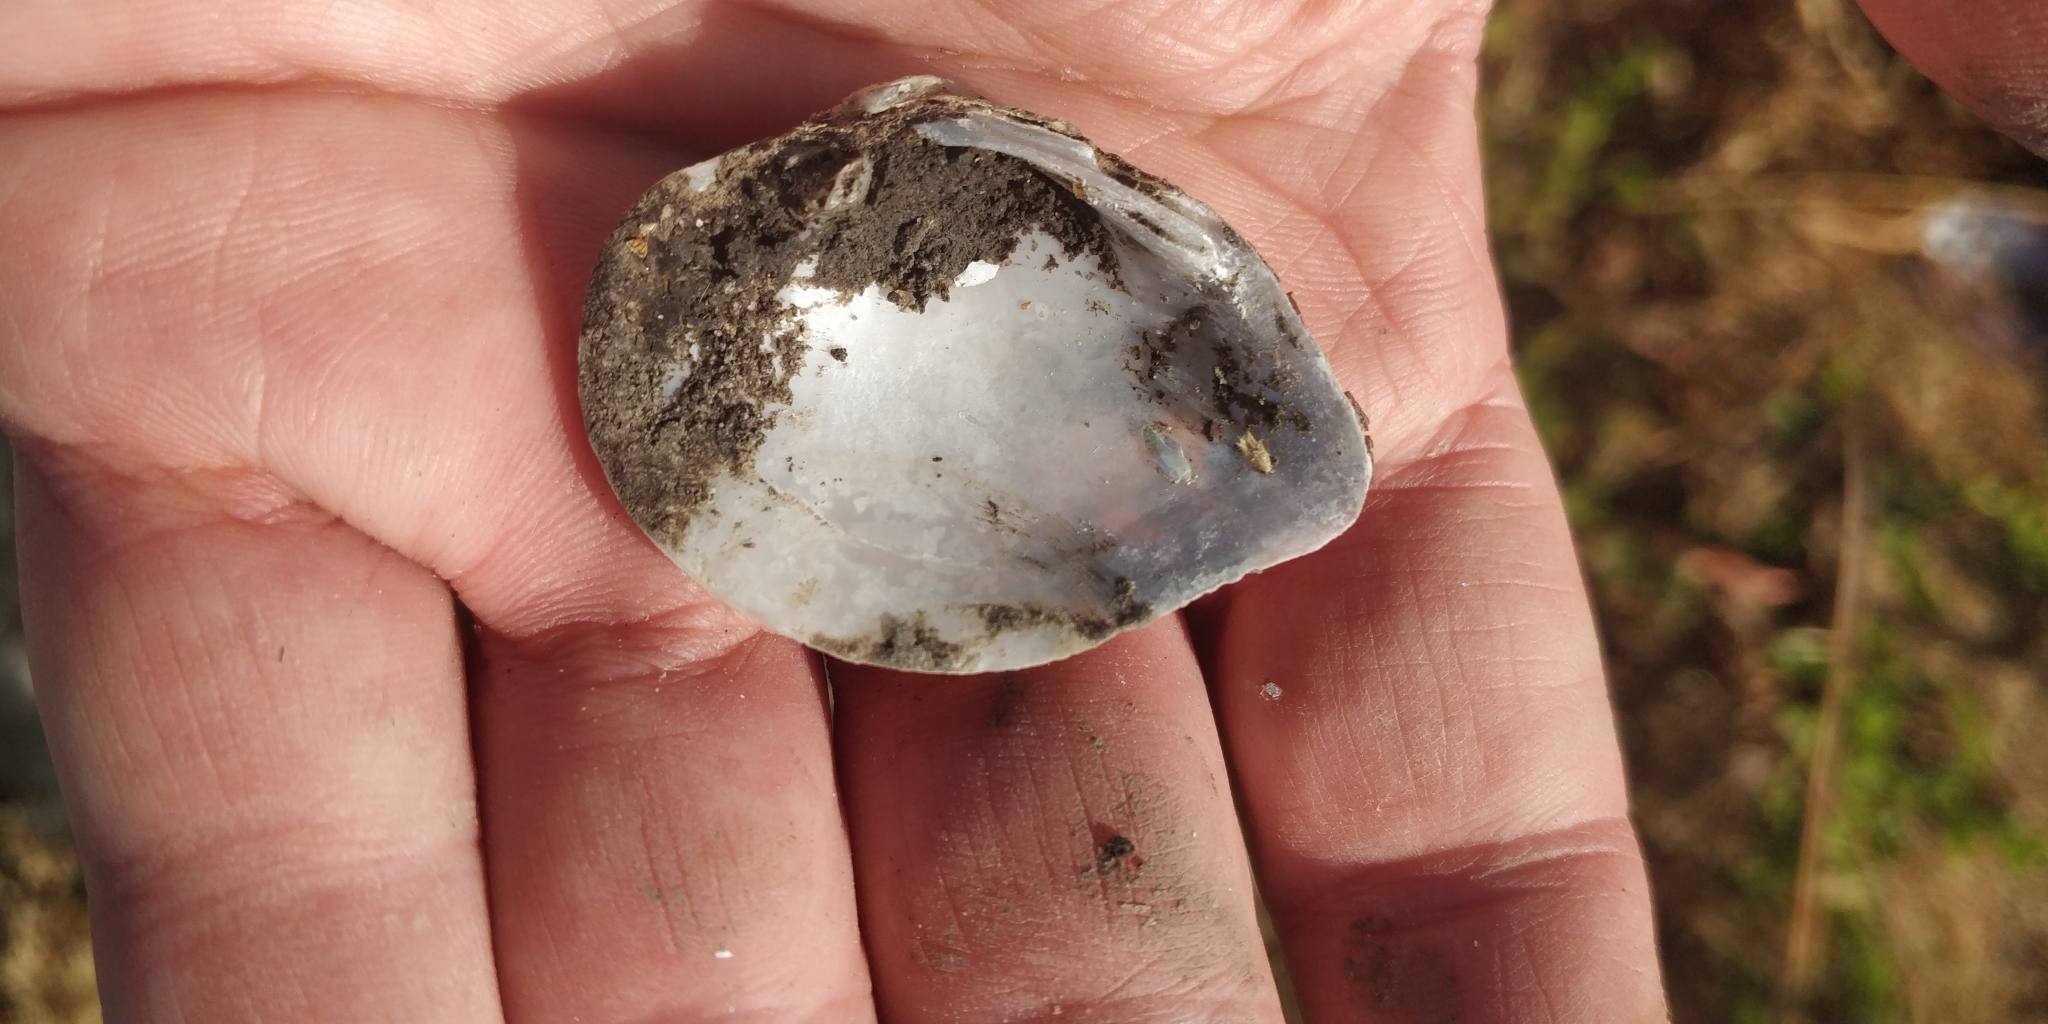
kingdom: Animalia
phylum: Mollusca
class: Bivalvia
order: Unionida
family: Unionidae
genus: Truncilla
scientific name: Truncilla truncata
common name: Deertoe
